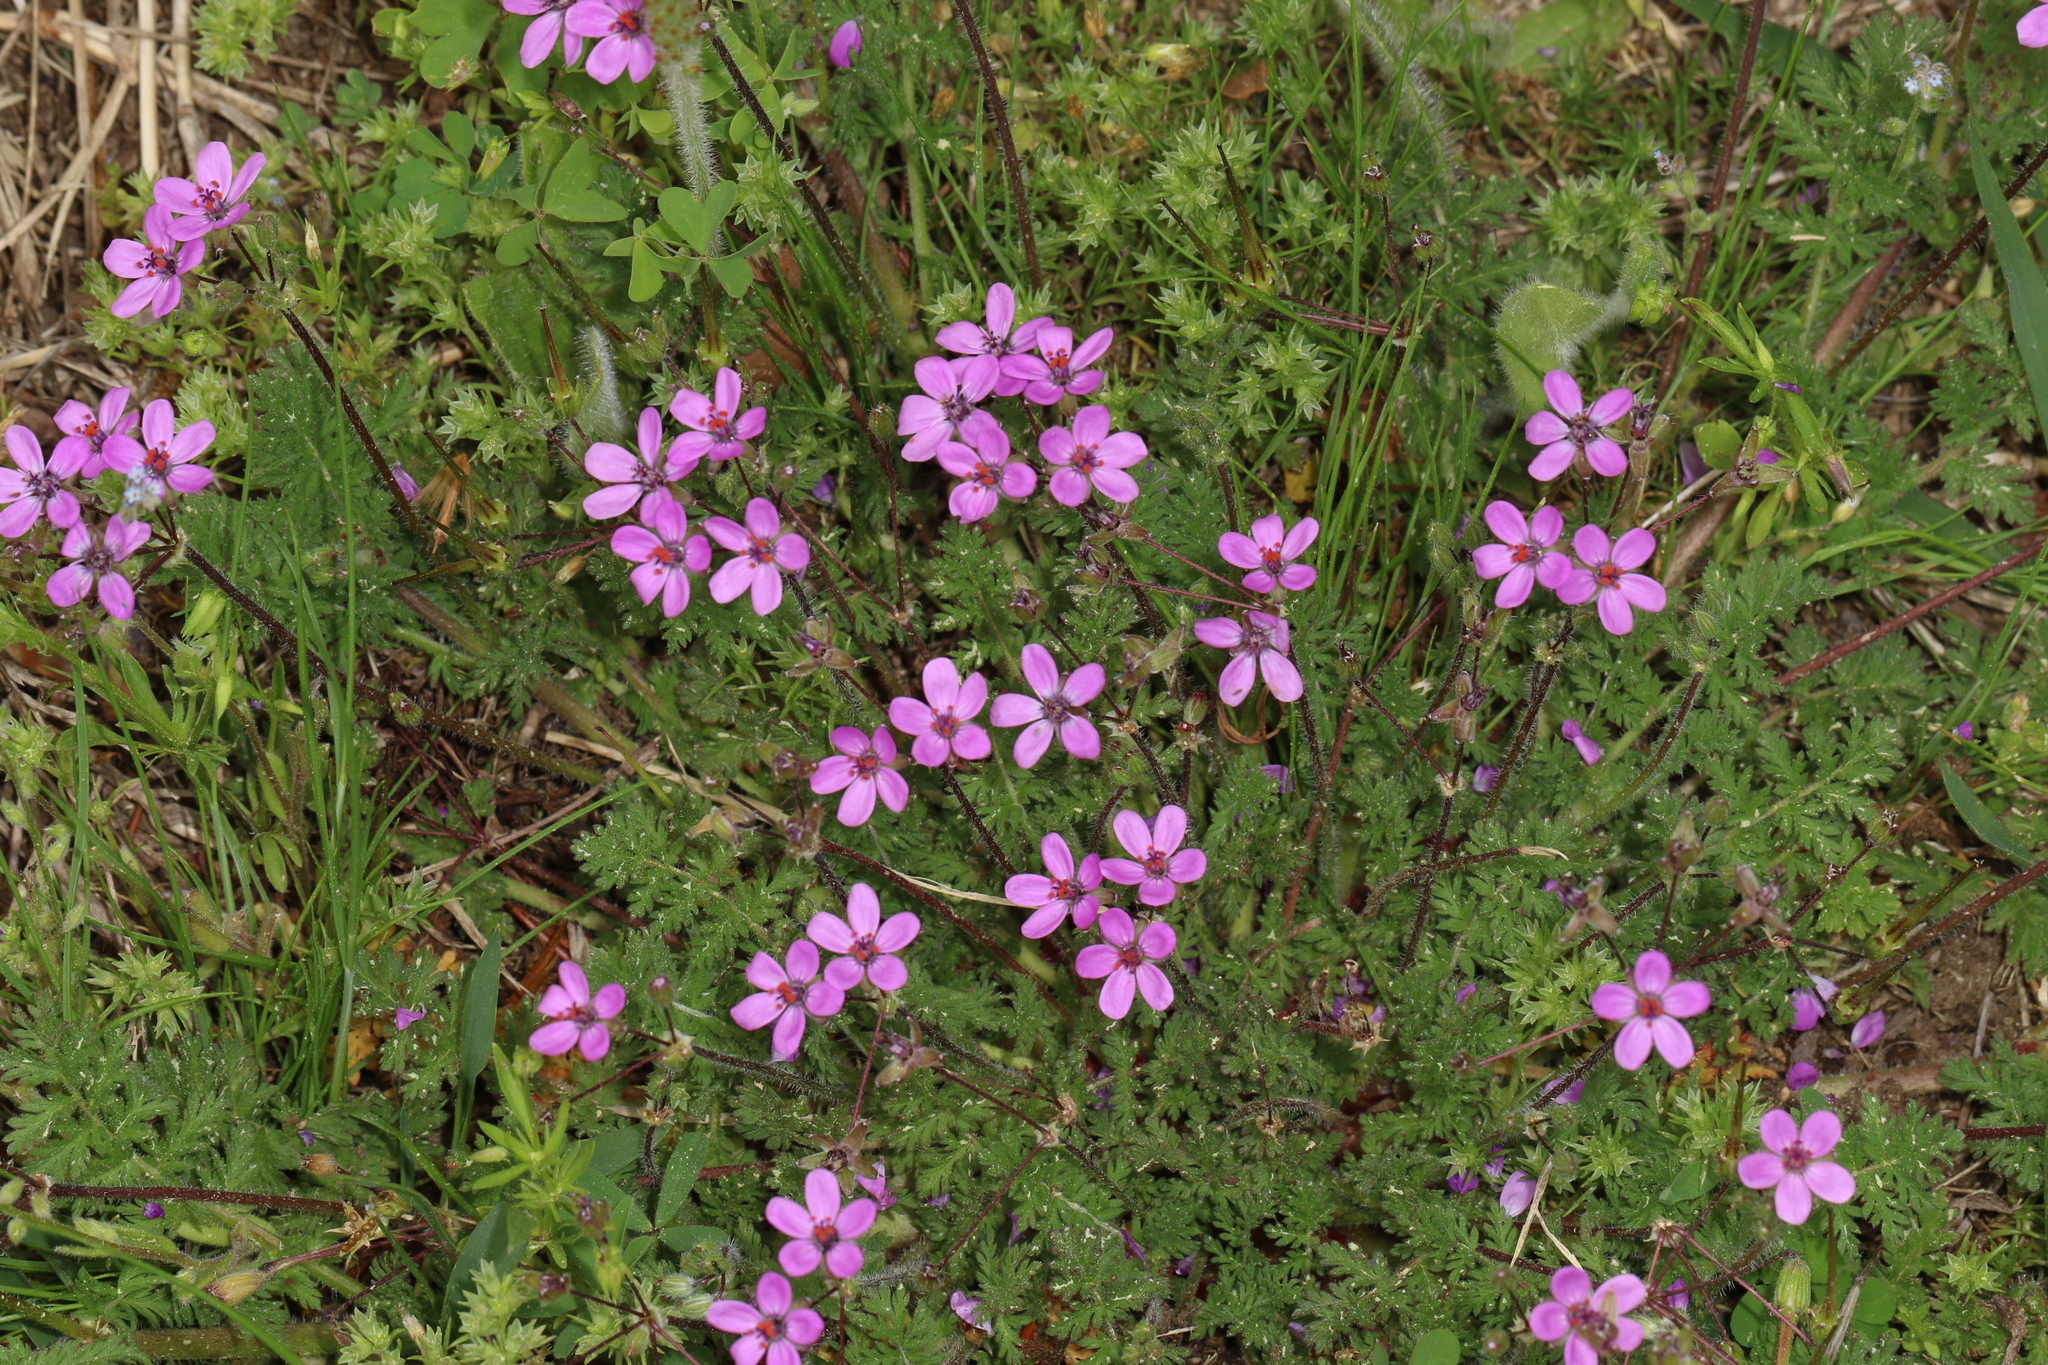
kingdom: Plantae
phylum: Tracheophyta
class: Magnoliopsida
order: Geraniales
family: Geraniaceae
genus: Erodium
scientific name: Erodium cicutarium
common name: Common stork's-bill
